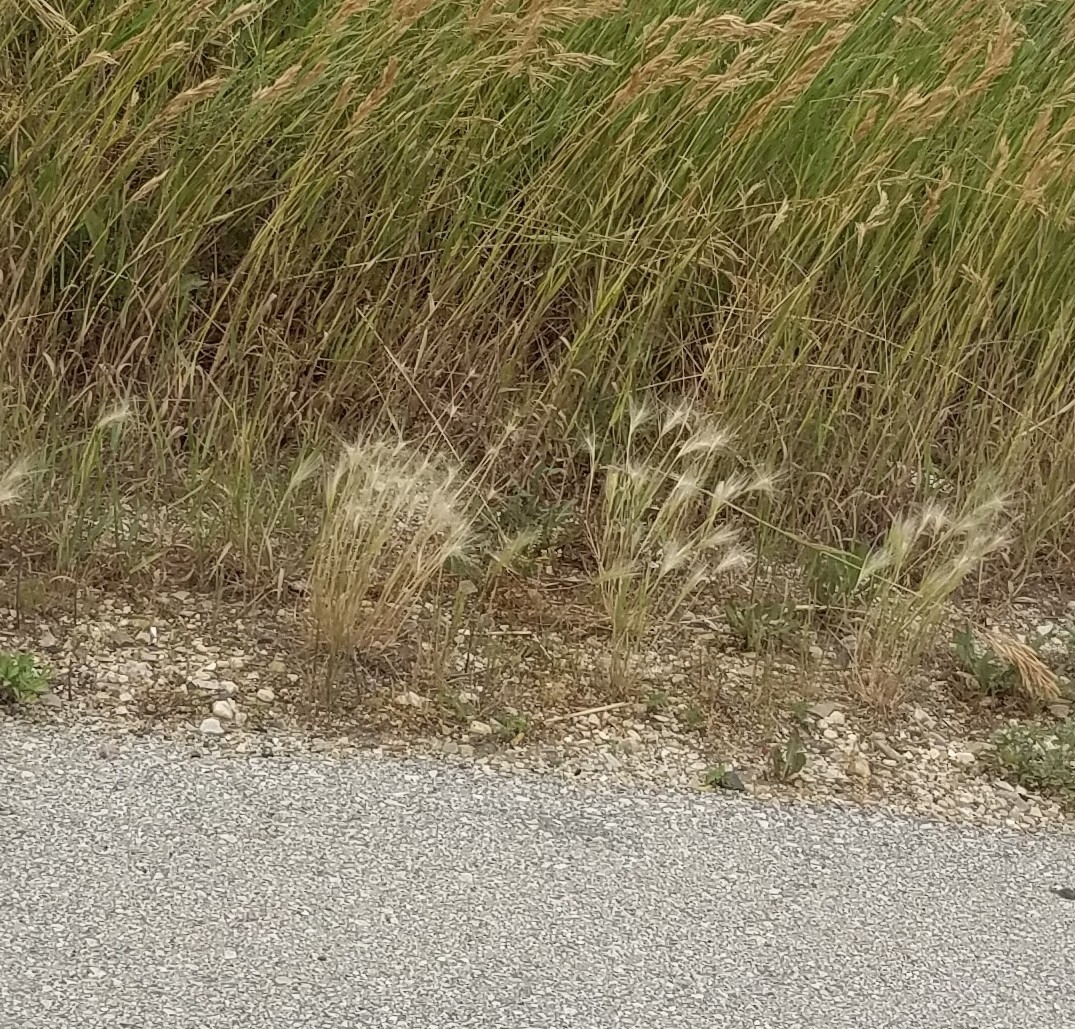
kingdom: Plantae
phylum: Tracheophyta
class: Liliopsida
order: Poales
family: Poaceae
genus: Hordeum
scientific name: Hordeum jubatum
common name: Foxtail barley
